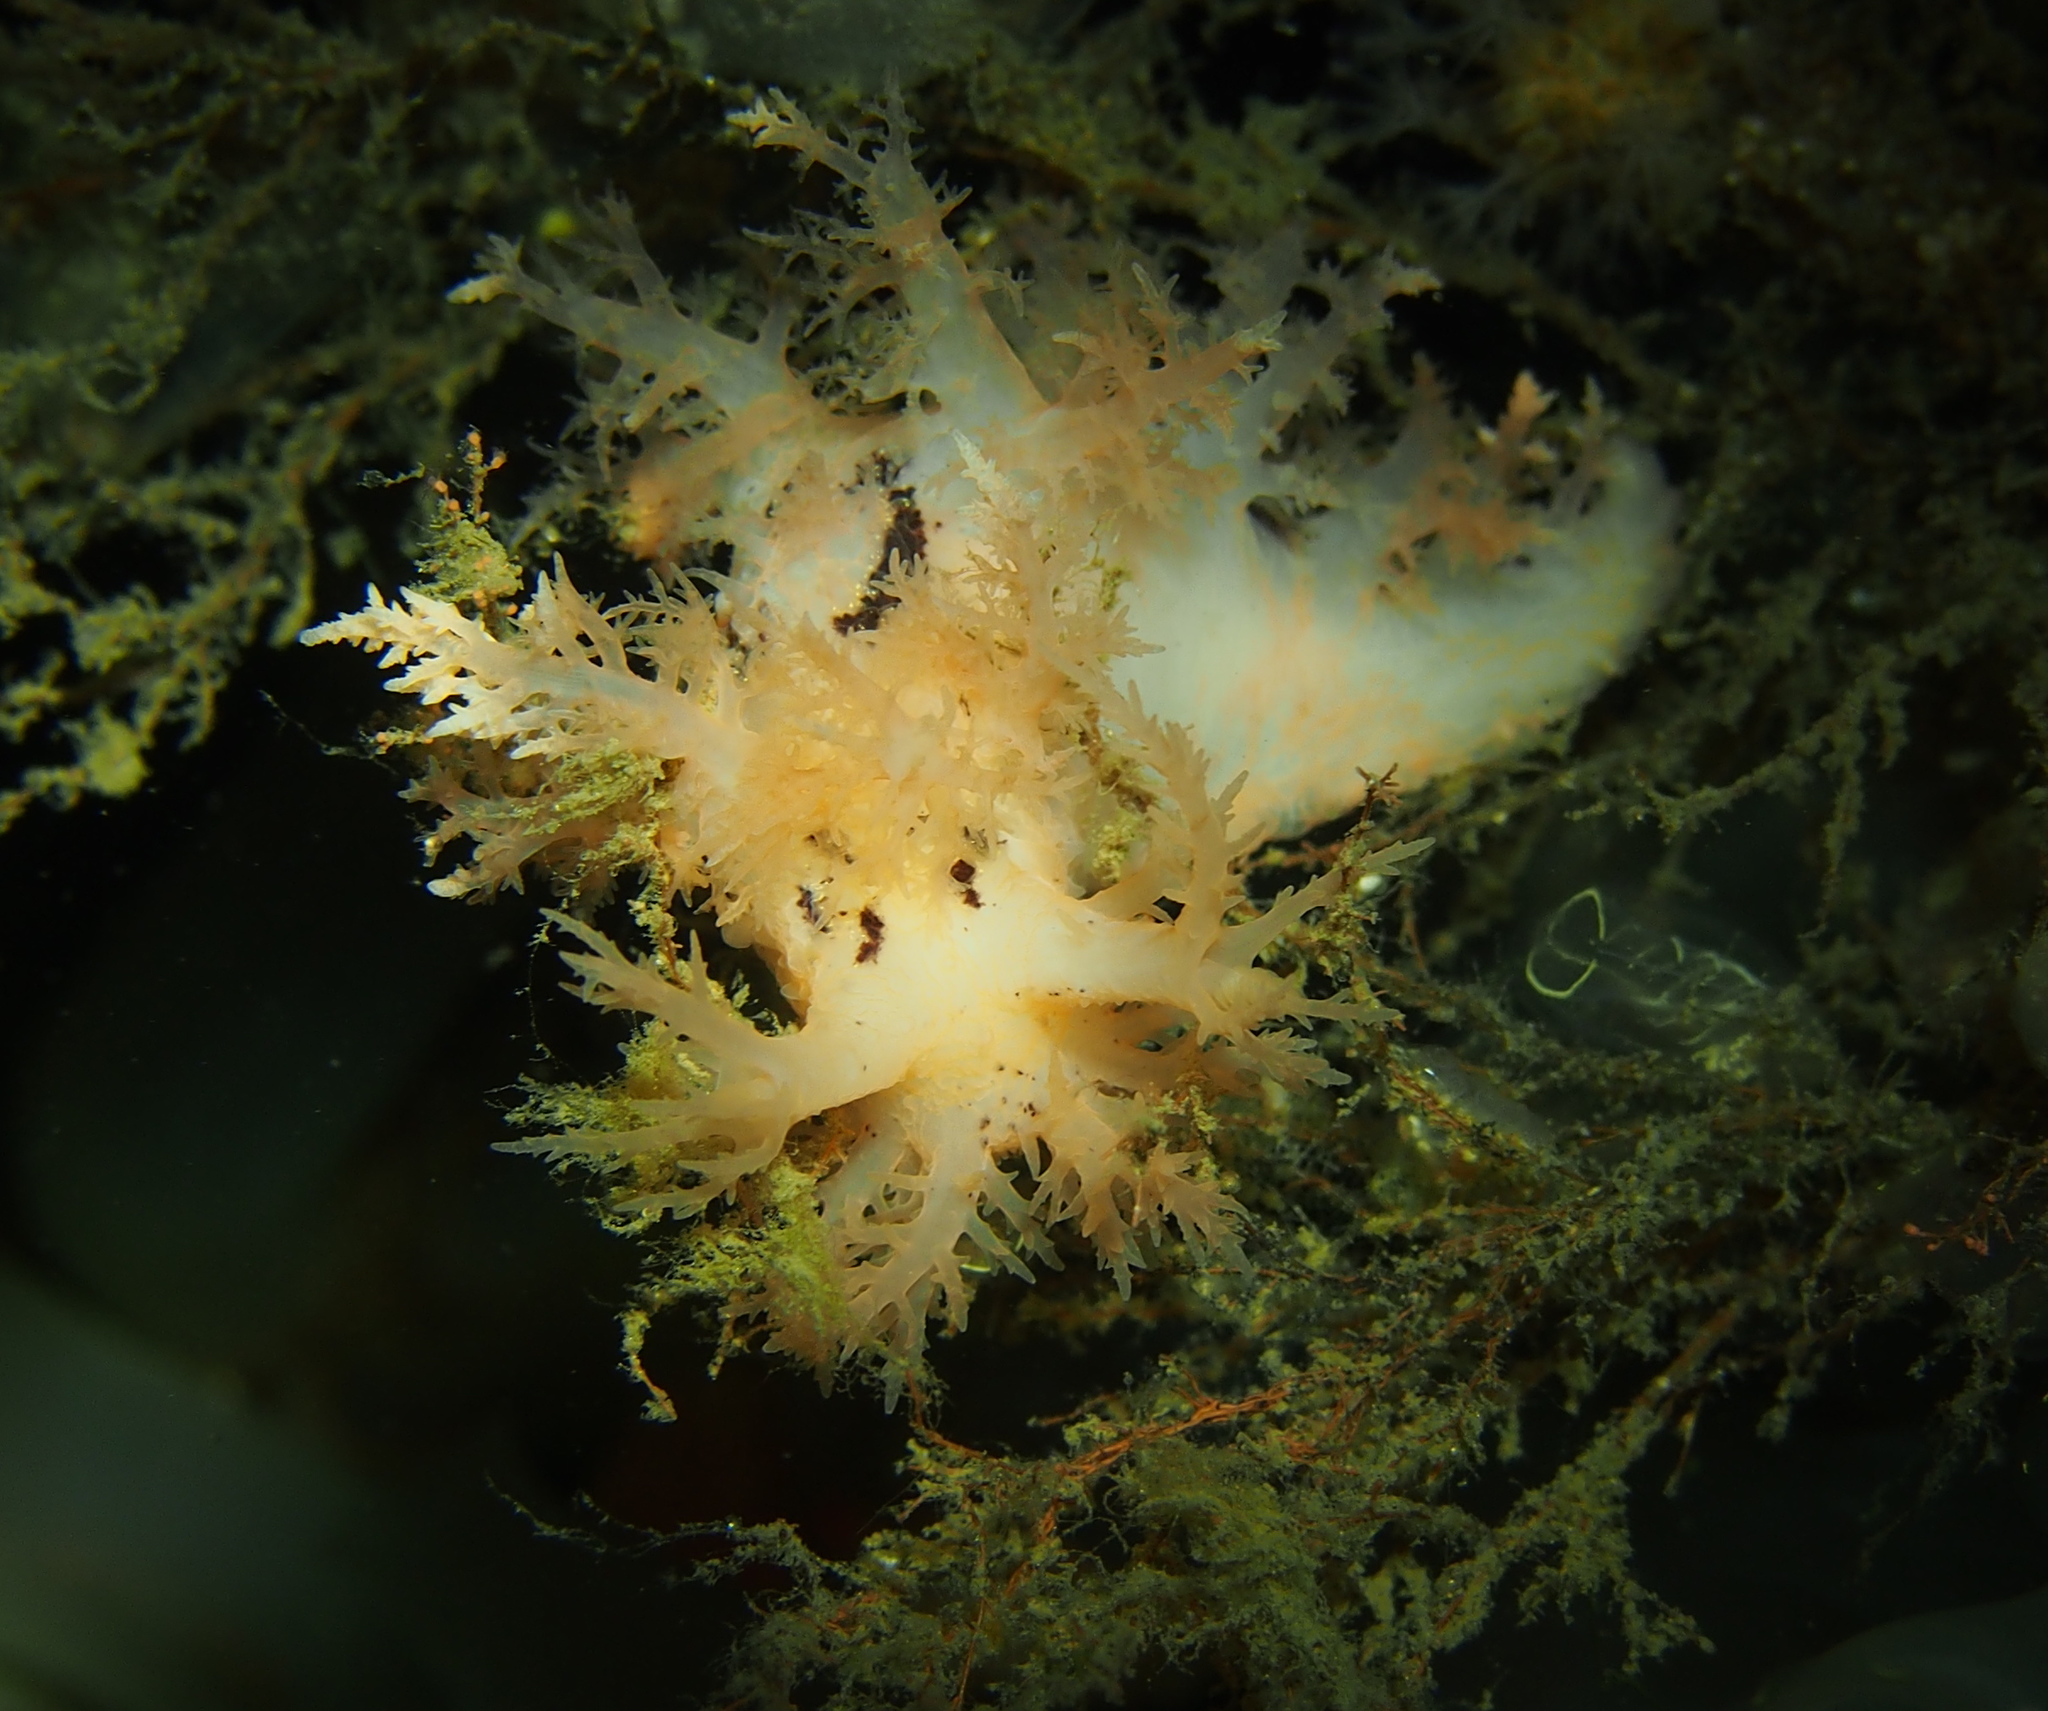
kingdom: Animalia
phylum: Mollusca
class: Gastropoda
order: Nudibranchia
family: Dendronotidae
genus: Dendronotus
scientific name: Dendronotus frondosus
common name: Bushy-backed nudibranch
